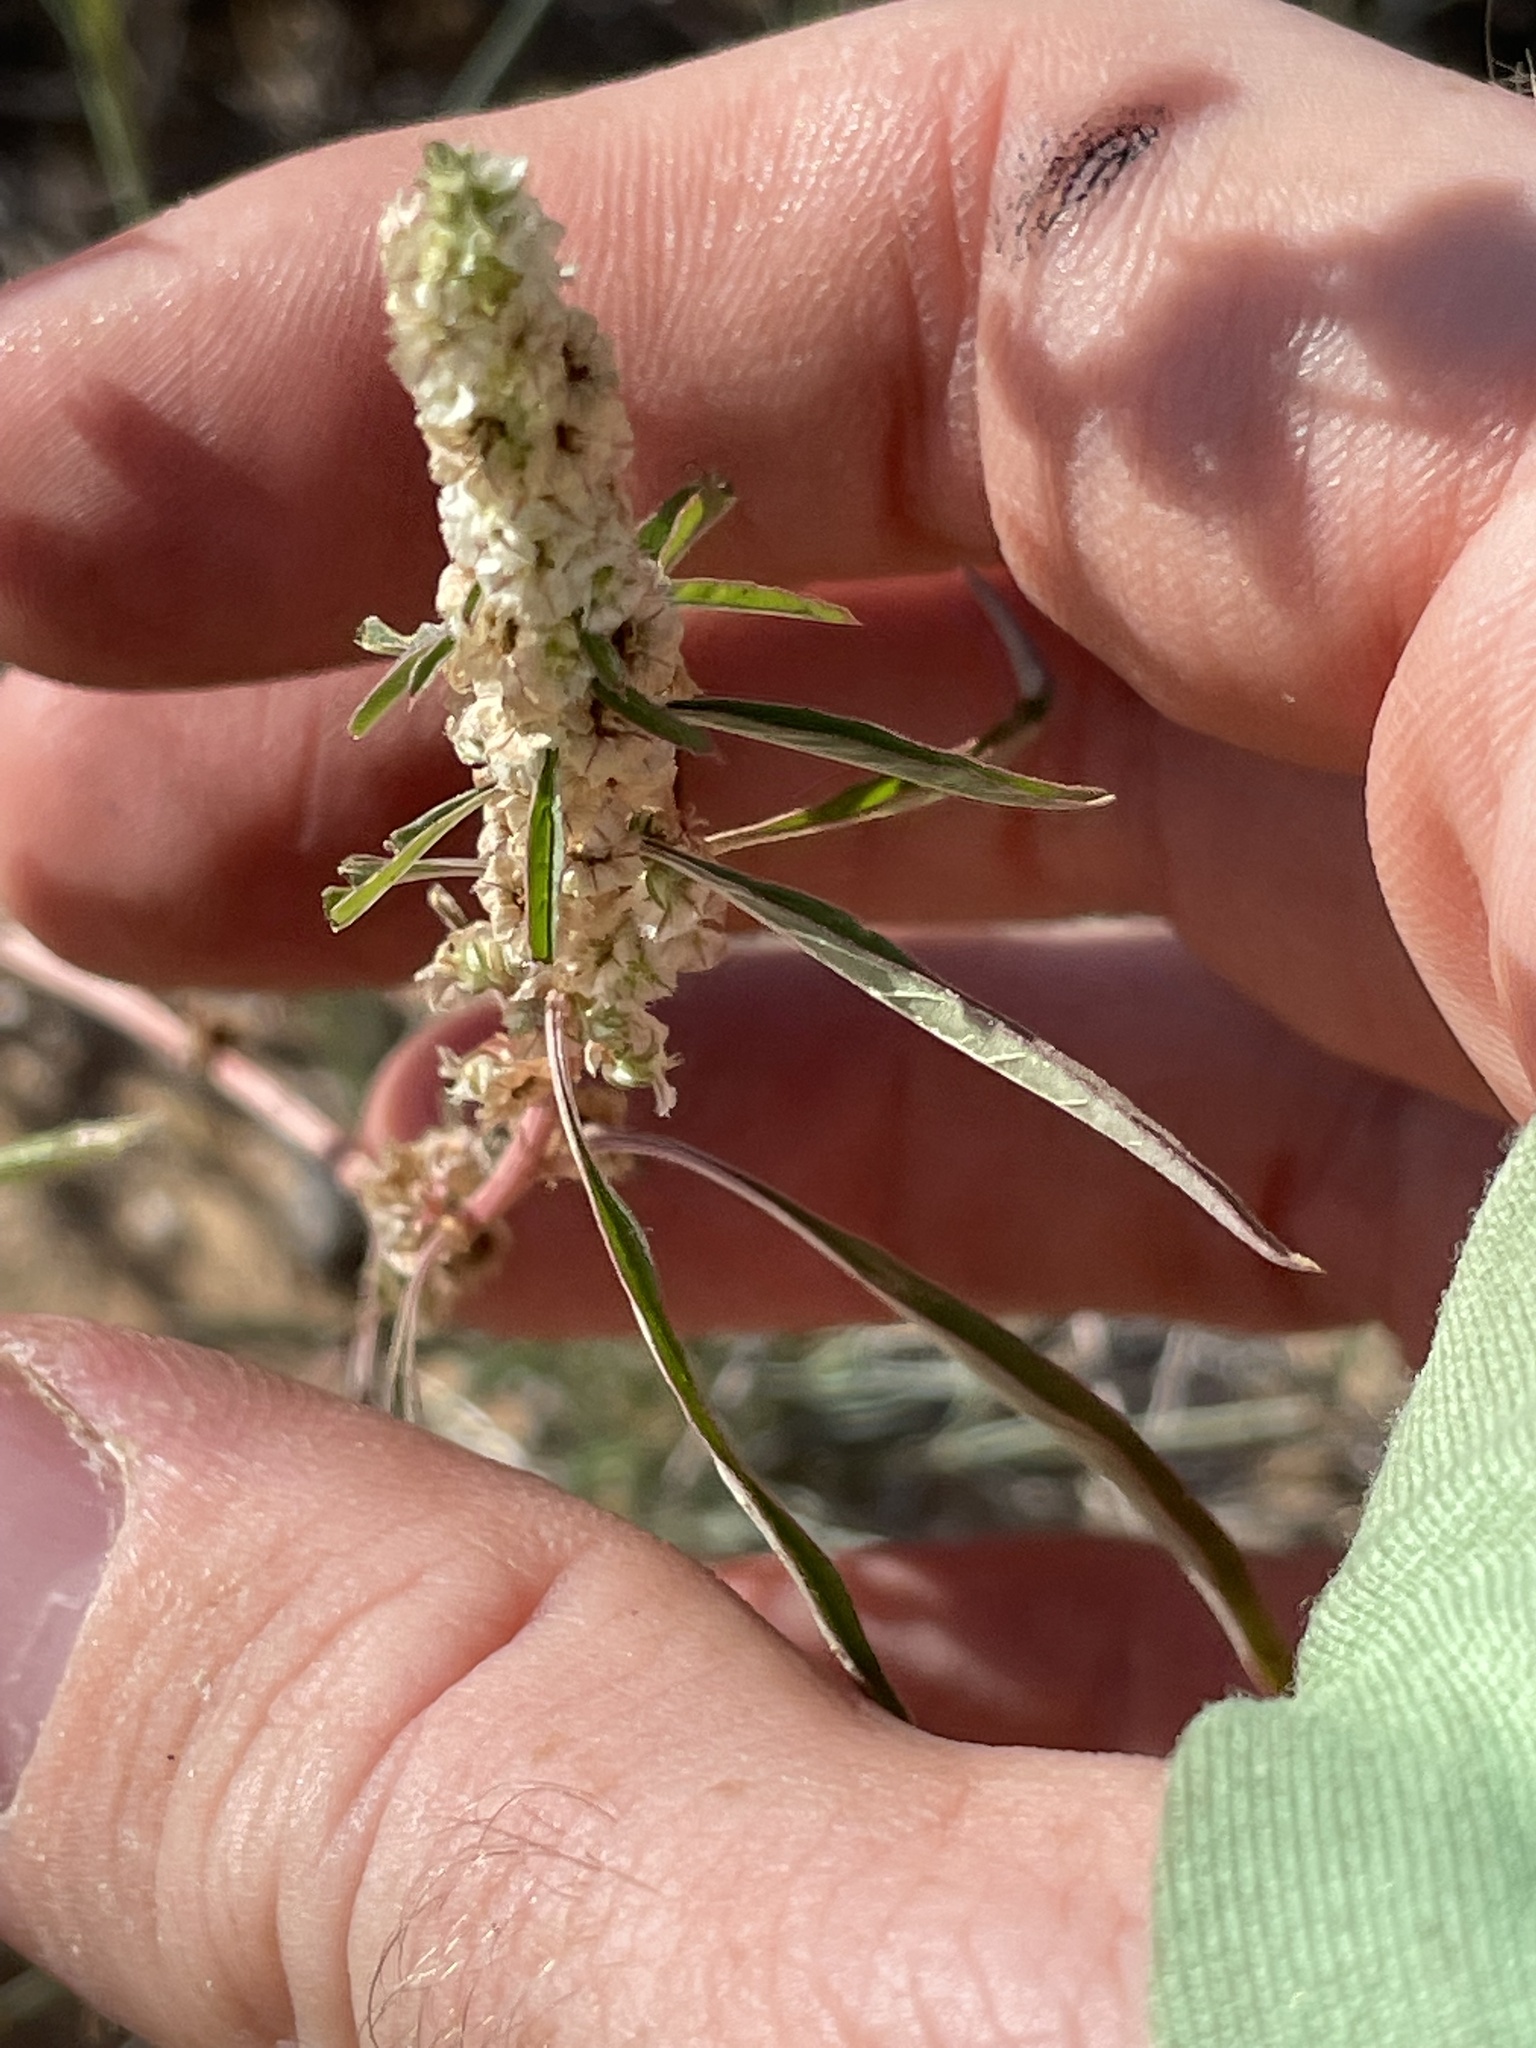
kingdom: Plantae
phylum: Tracheophyta
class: Magnoliopsida
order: Caryophyllales
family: Amaranthaceae
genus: Amaranthus
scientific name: Amaranthus fimbriatus
